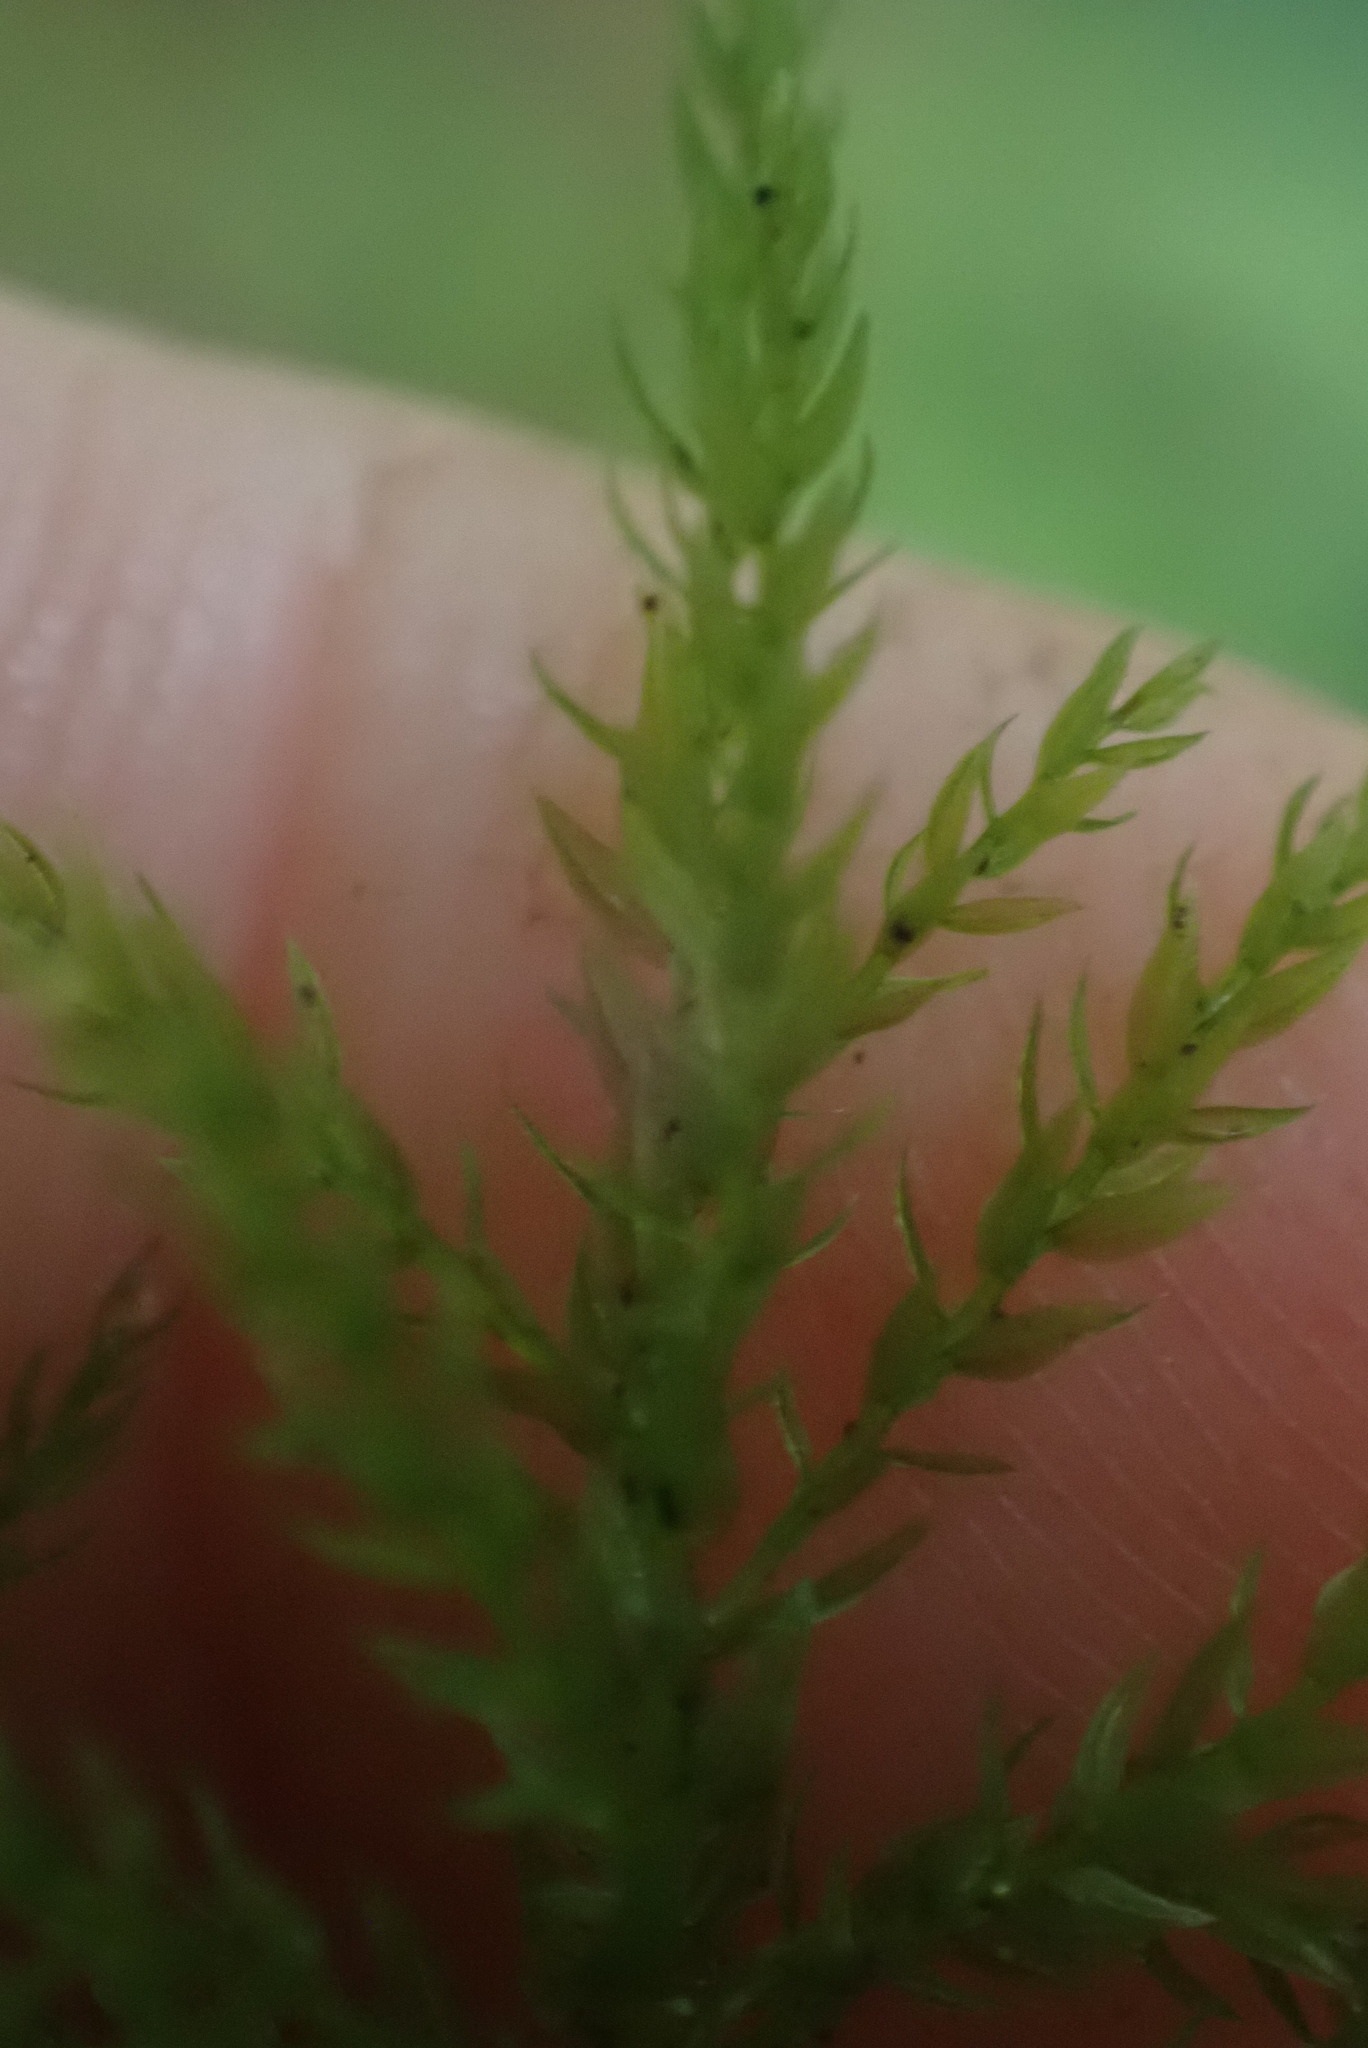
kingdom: Plantae
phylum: Bryophyta
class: Bryopsida
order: Bryales
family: Mniaceae
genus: Leucolepis
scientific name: Leucolepis acanthoneura
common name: Leucolepis umbrella moss
